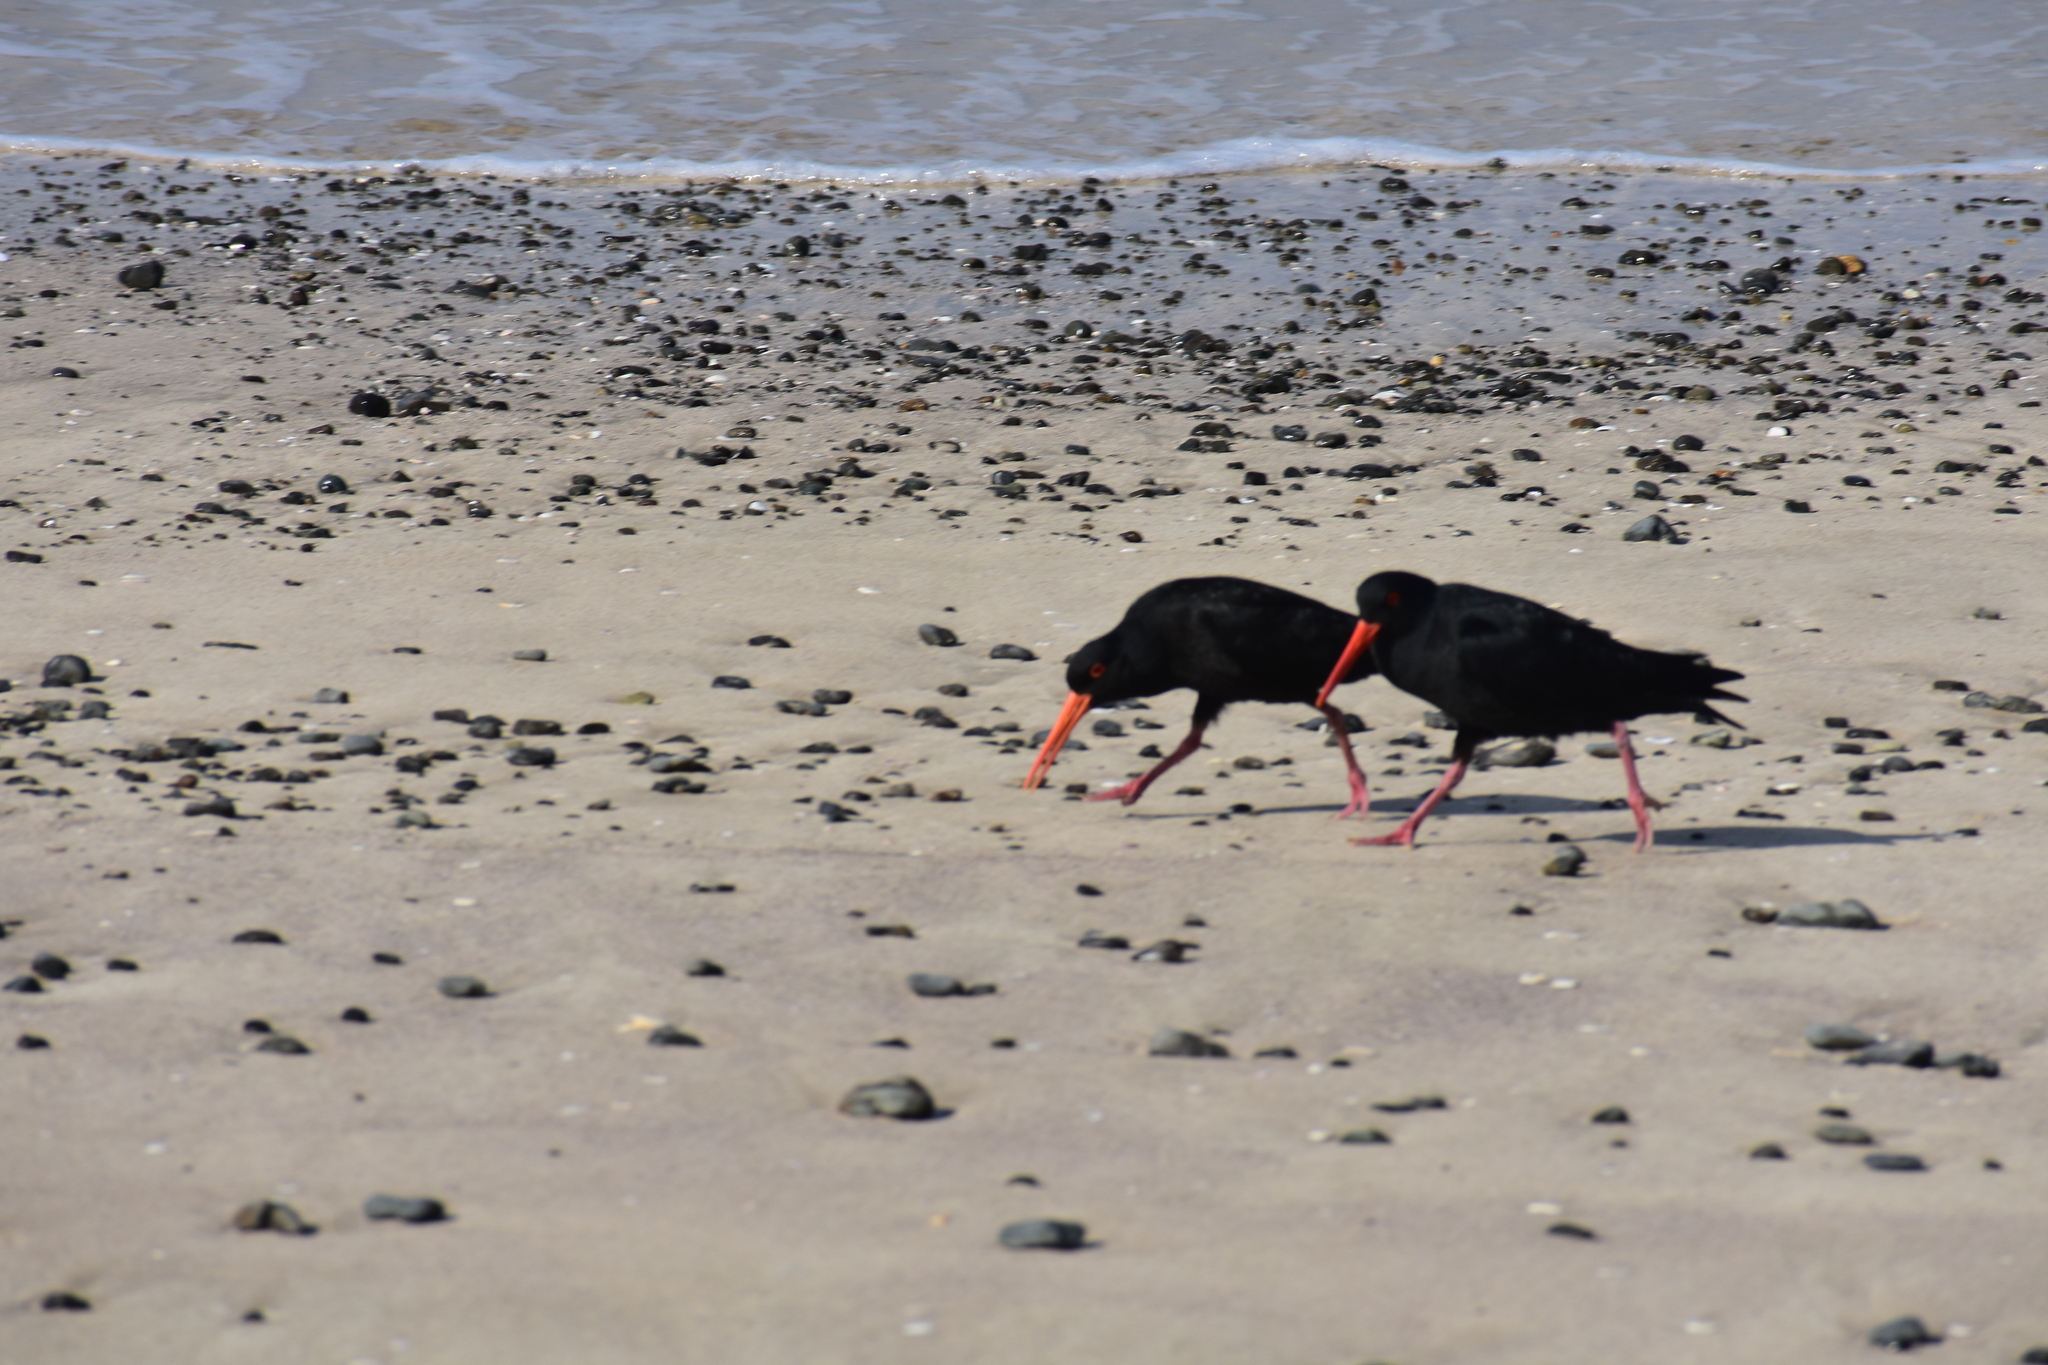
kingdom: Animalia
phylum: Chordata
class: Aves
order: Charadriiformes
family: Haematopodidae
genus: Haematopus
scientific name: Haematopus unicolor
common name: Variable oystercatcher
